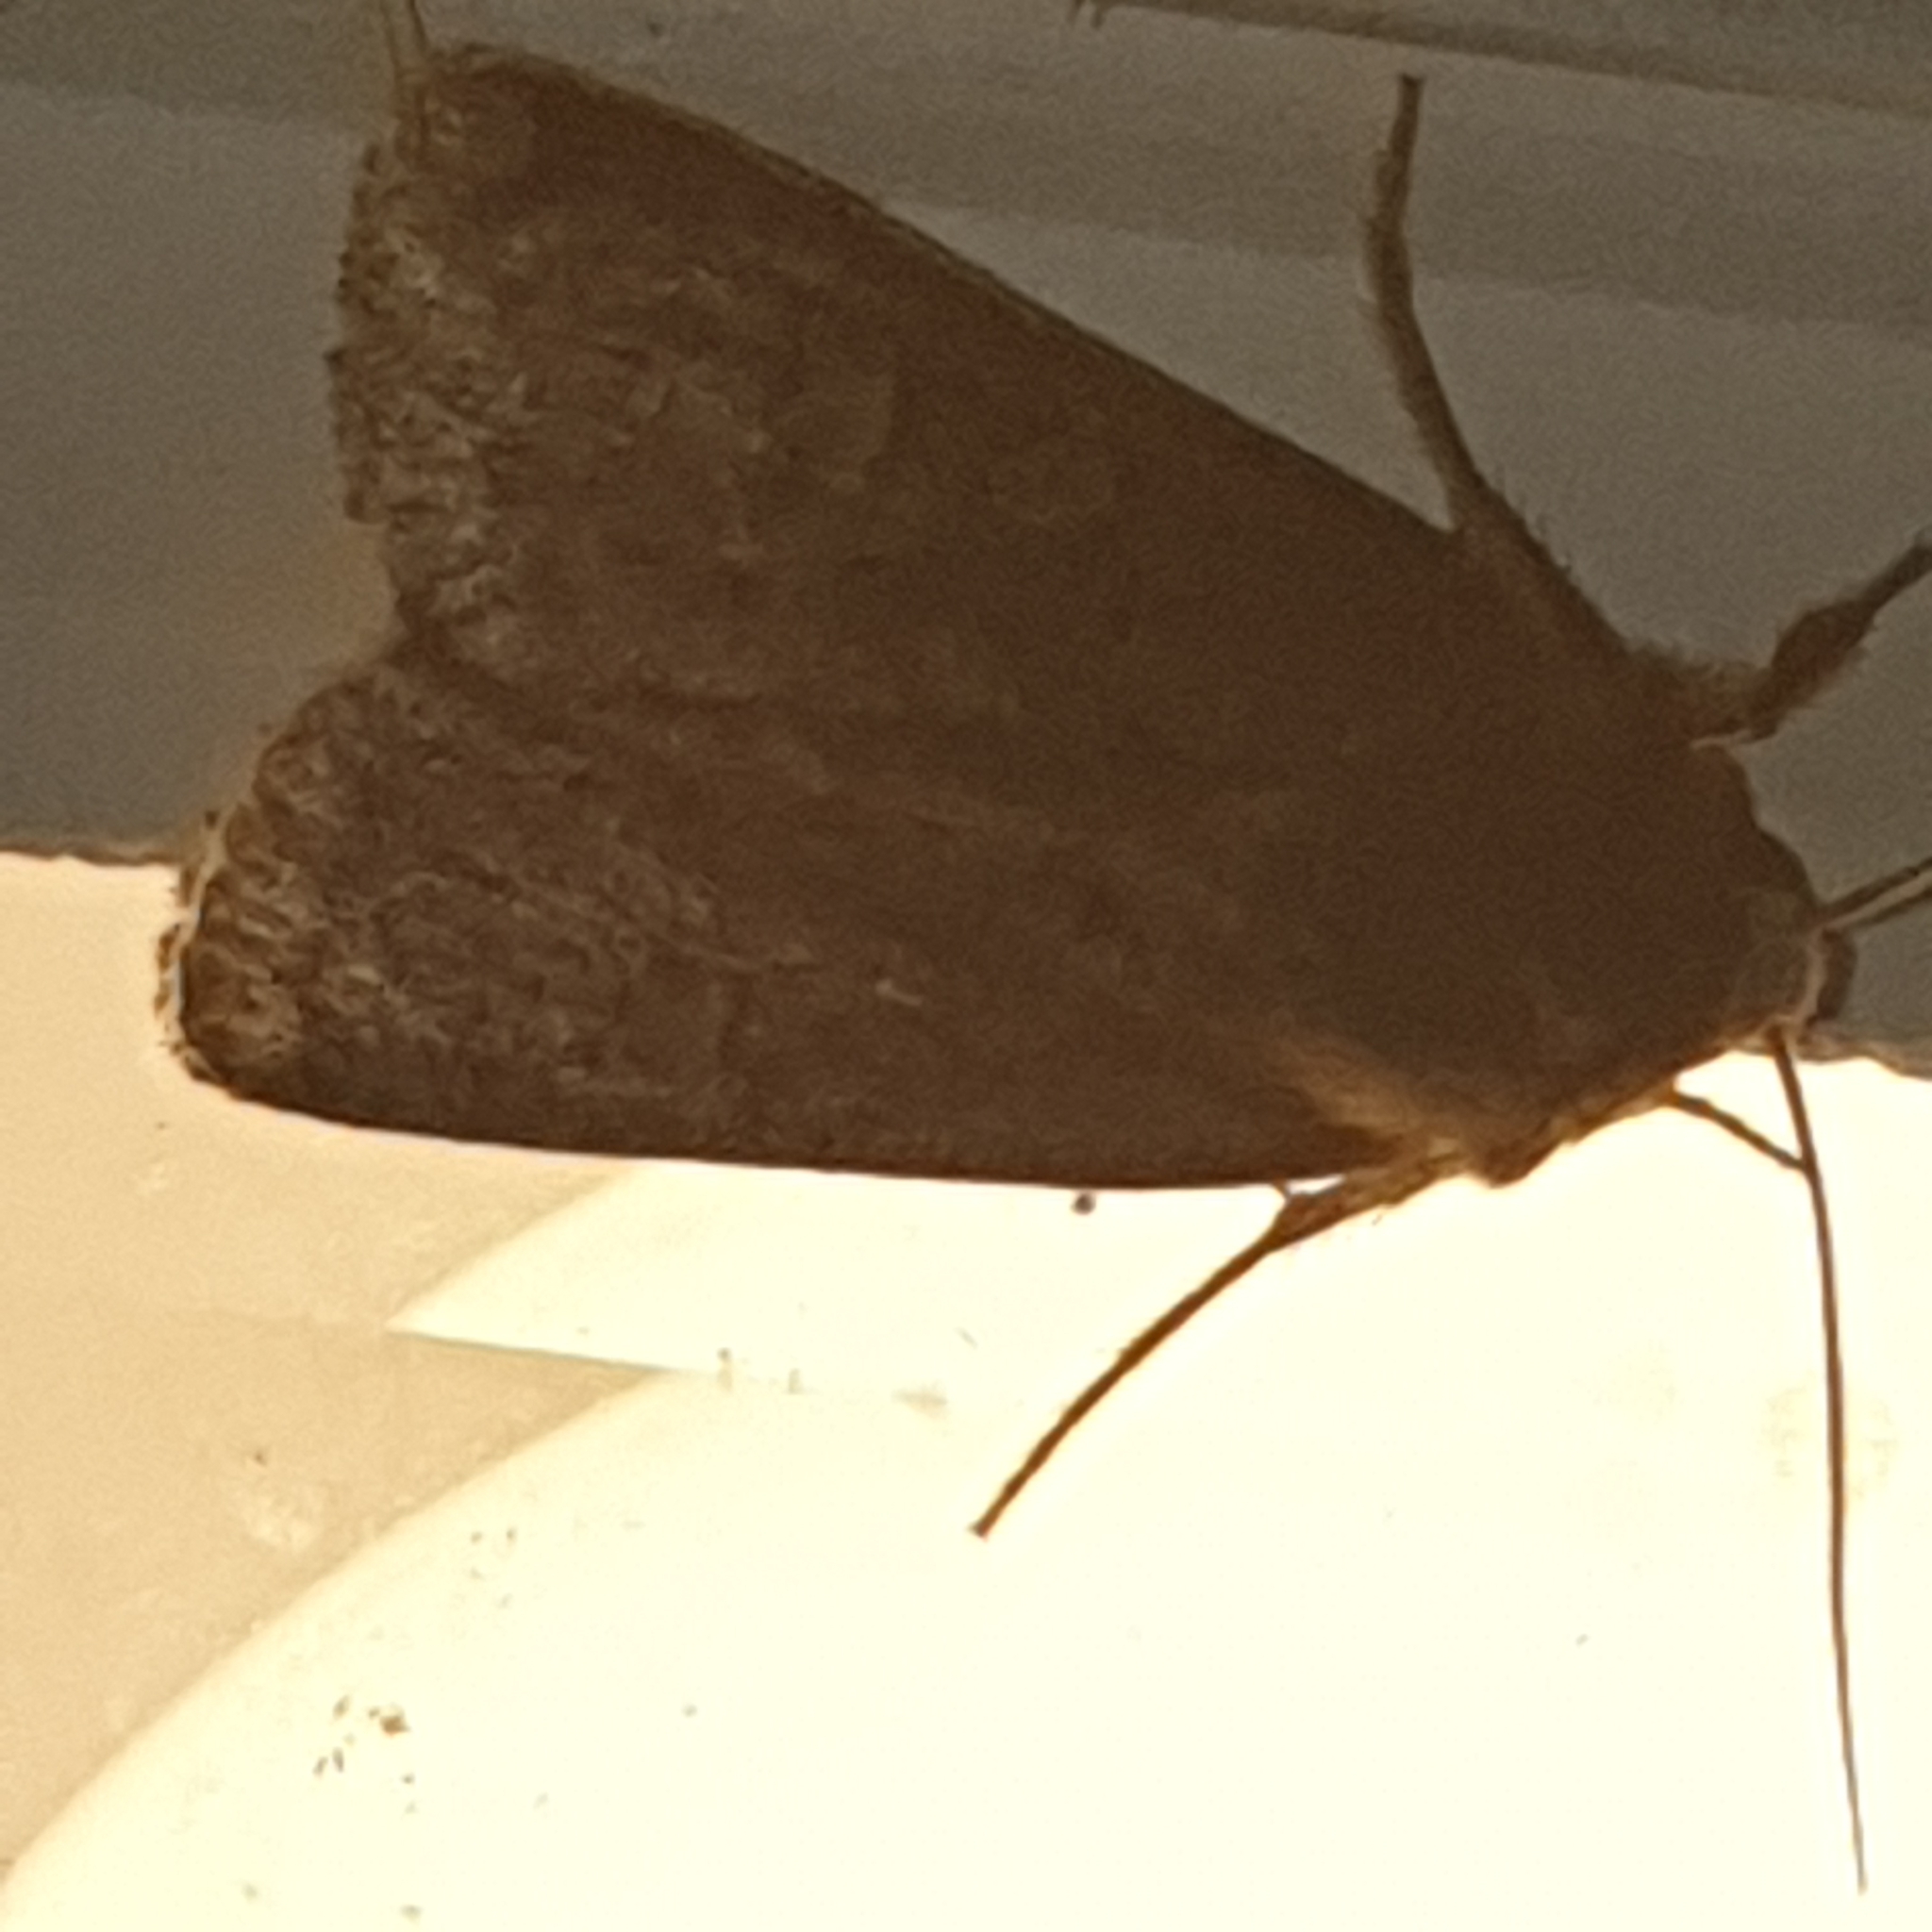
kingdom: Animalia
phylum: Arthropoda
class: Insecta
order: Lepidoptera
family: Noctuidae
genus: Xestia
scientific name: Xestia xanthographa
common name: Square-spot rustic
